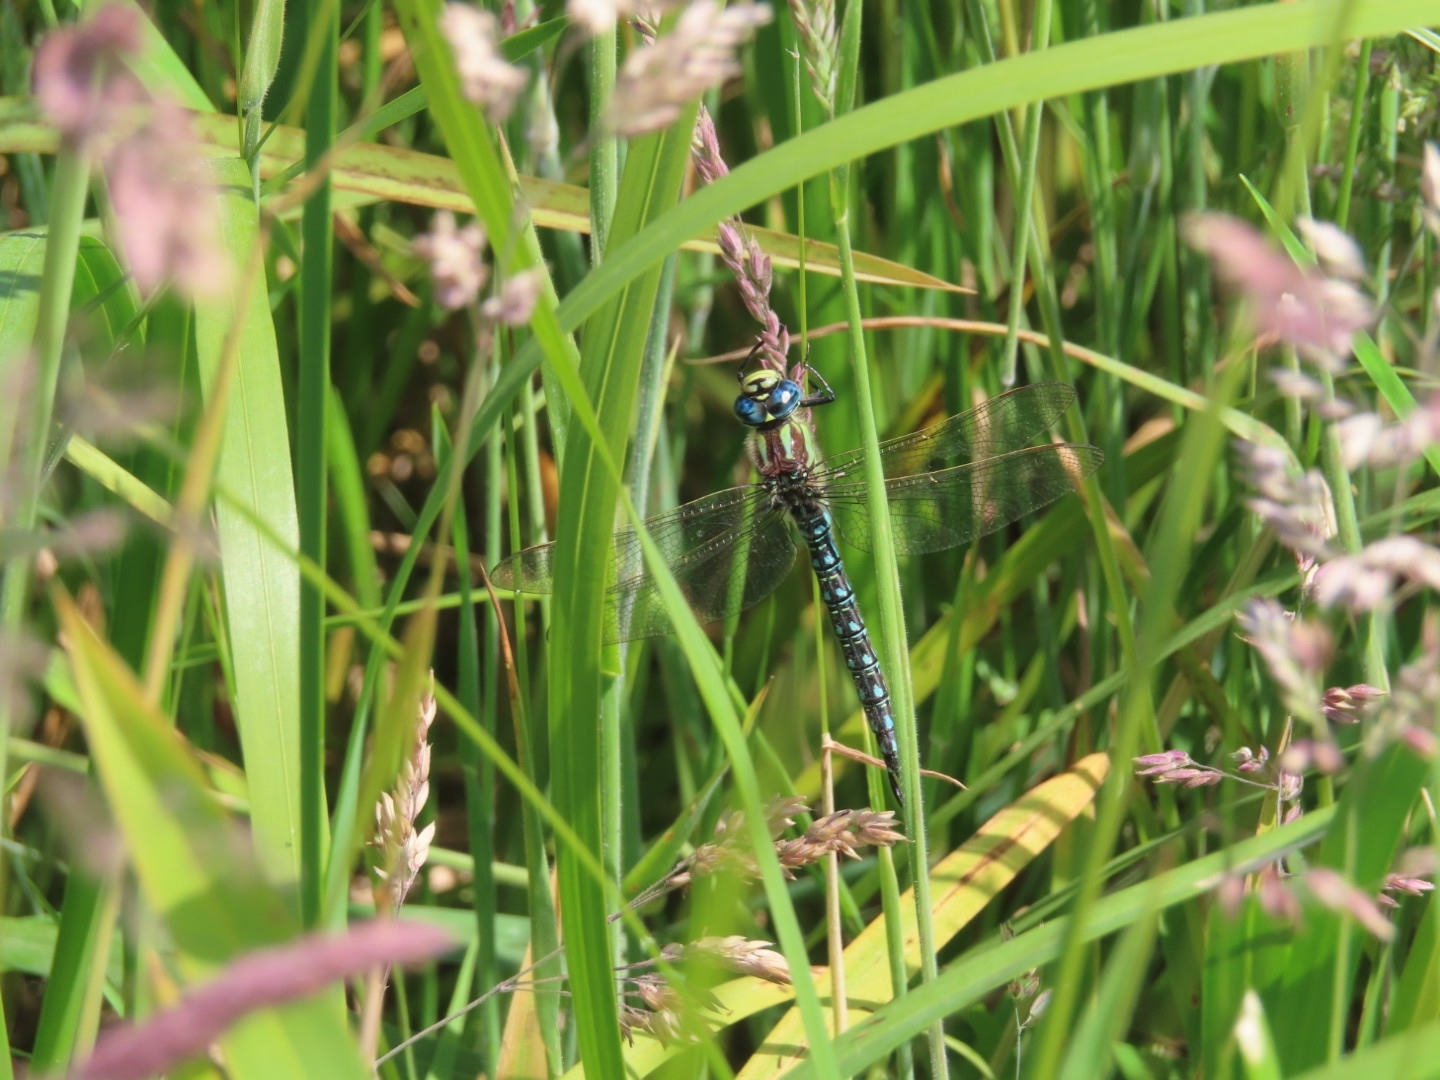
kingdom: Animalia
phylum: Arthropoda
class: Insecta
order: Odonata
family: Aeshnidae
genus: Brachytron
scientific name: Brachytron pratense
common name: Hairy hawker
